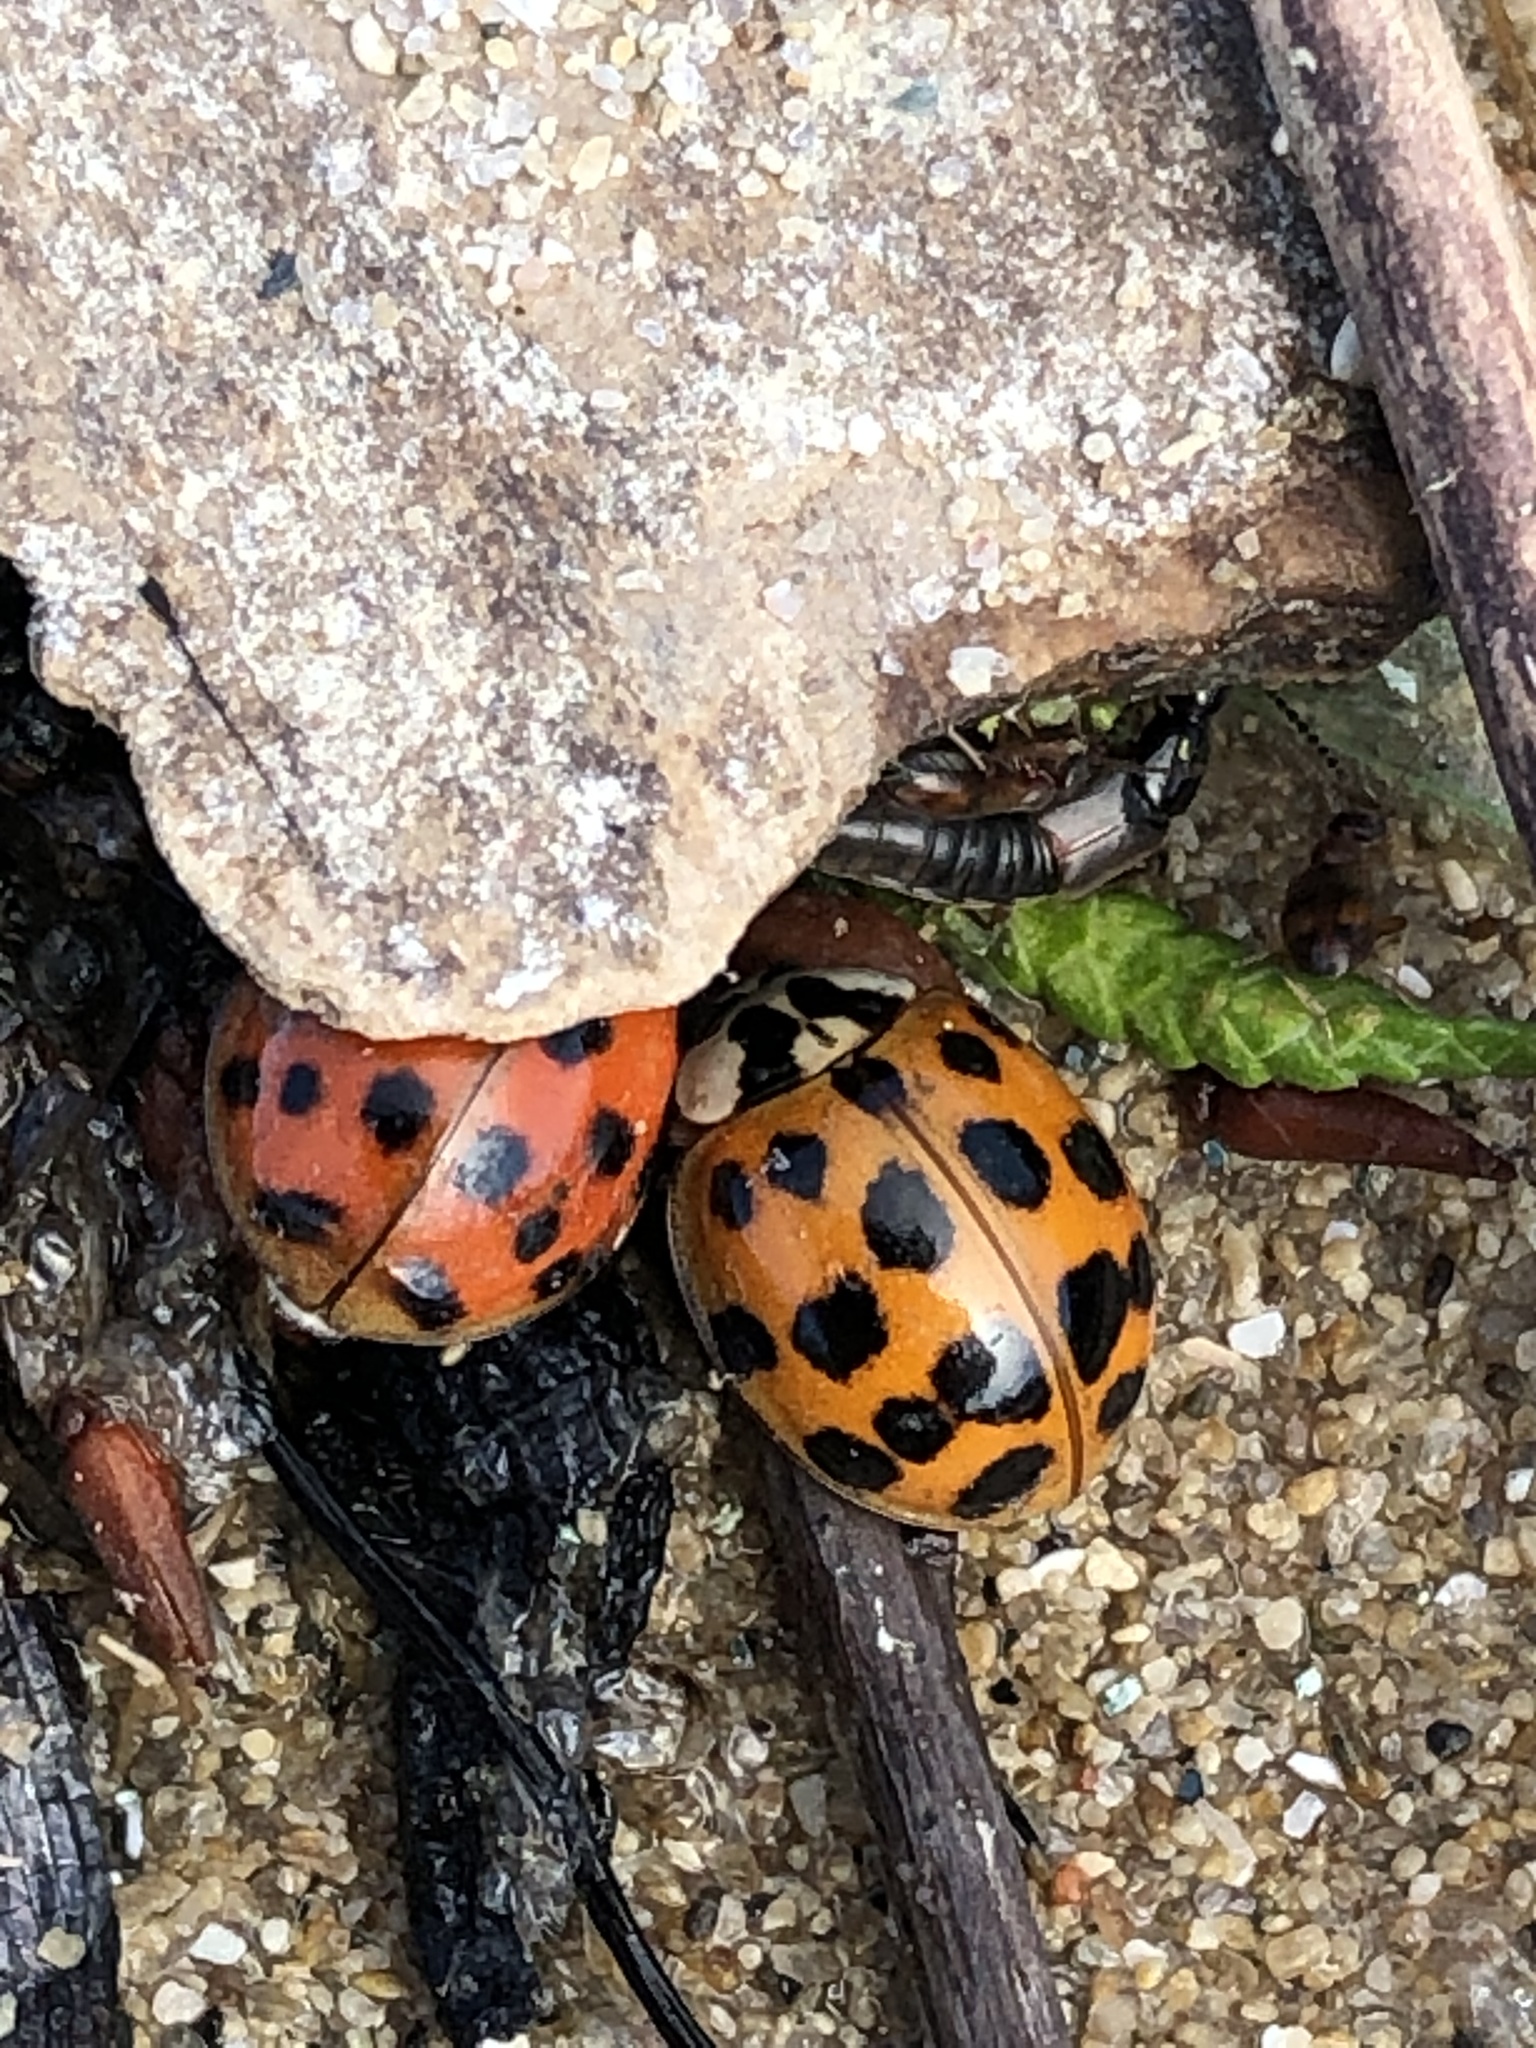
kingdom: Animalia
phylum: Arthropoda
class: Insecta
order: Coleoptera
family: Coccinellidae
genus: Harmonia
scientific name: Harmonia axyridis
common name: Harlequin ladybird
